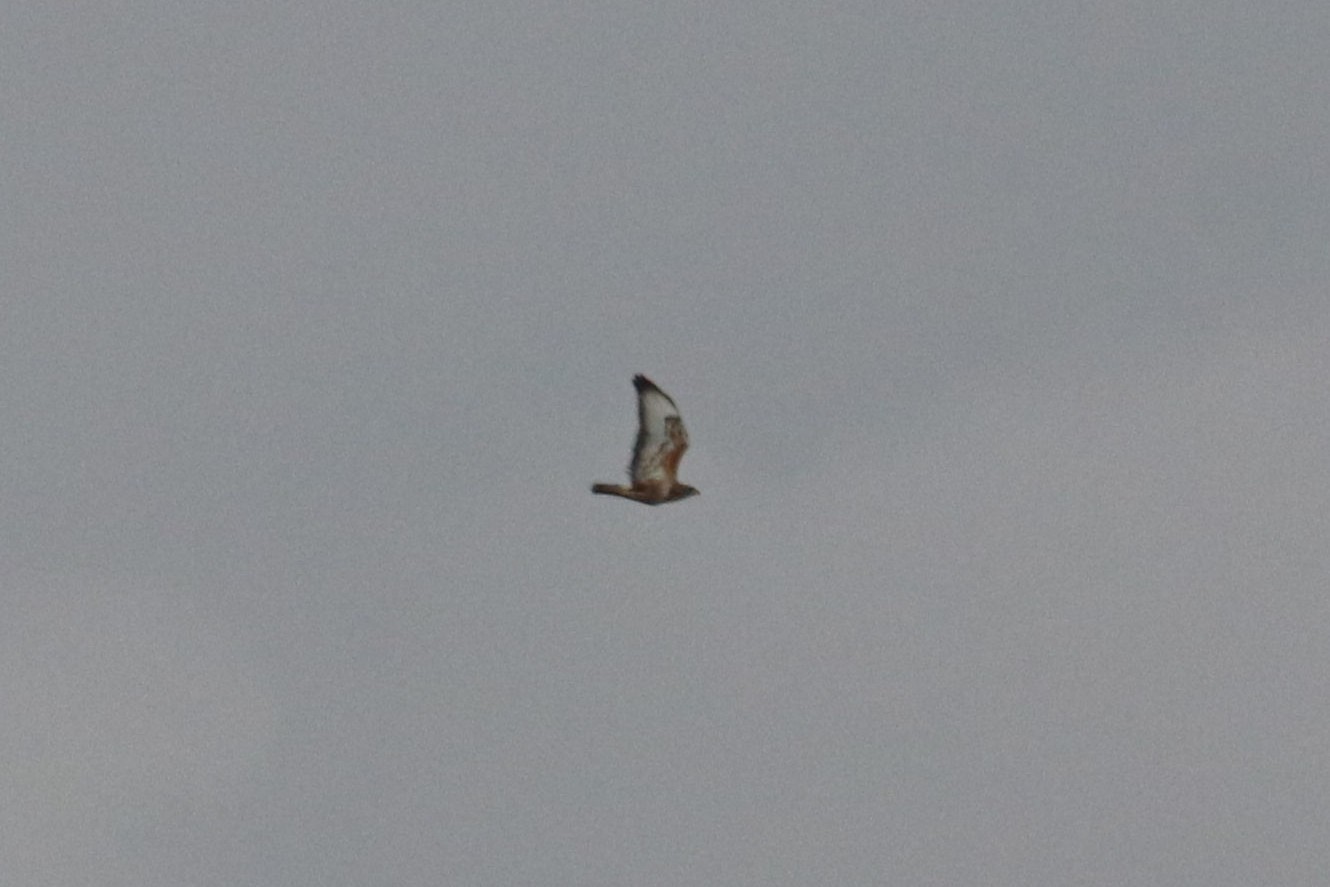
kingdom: Animalia
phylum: Chordata
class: Aves
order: Accipitriformes
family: Accipitridae
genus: Buteo
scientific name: Buteo buteo
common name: Common buzzard
